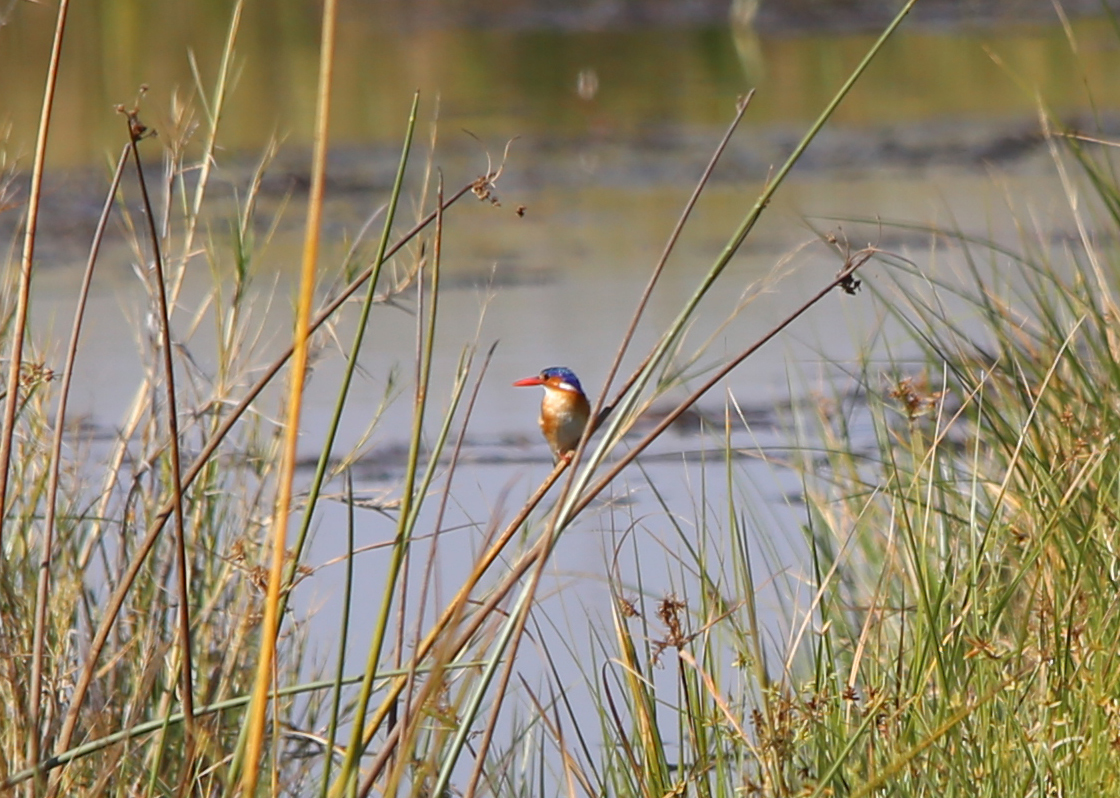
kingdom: Animalia
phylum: Chordata
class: Aves
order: Coraciiformes
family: Alcedinidae
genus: Corythornis
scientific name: Corythornis cristatus
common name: Malachite kingfisher
